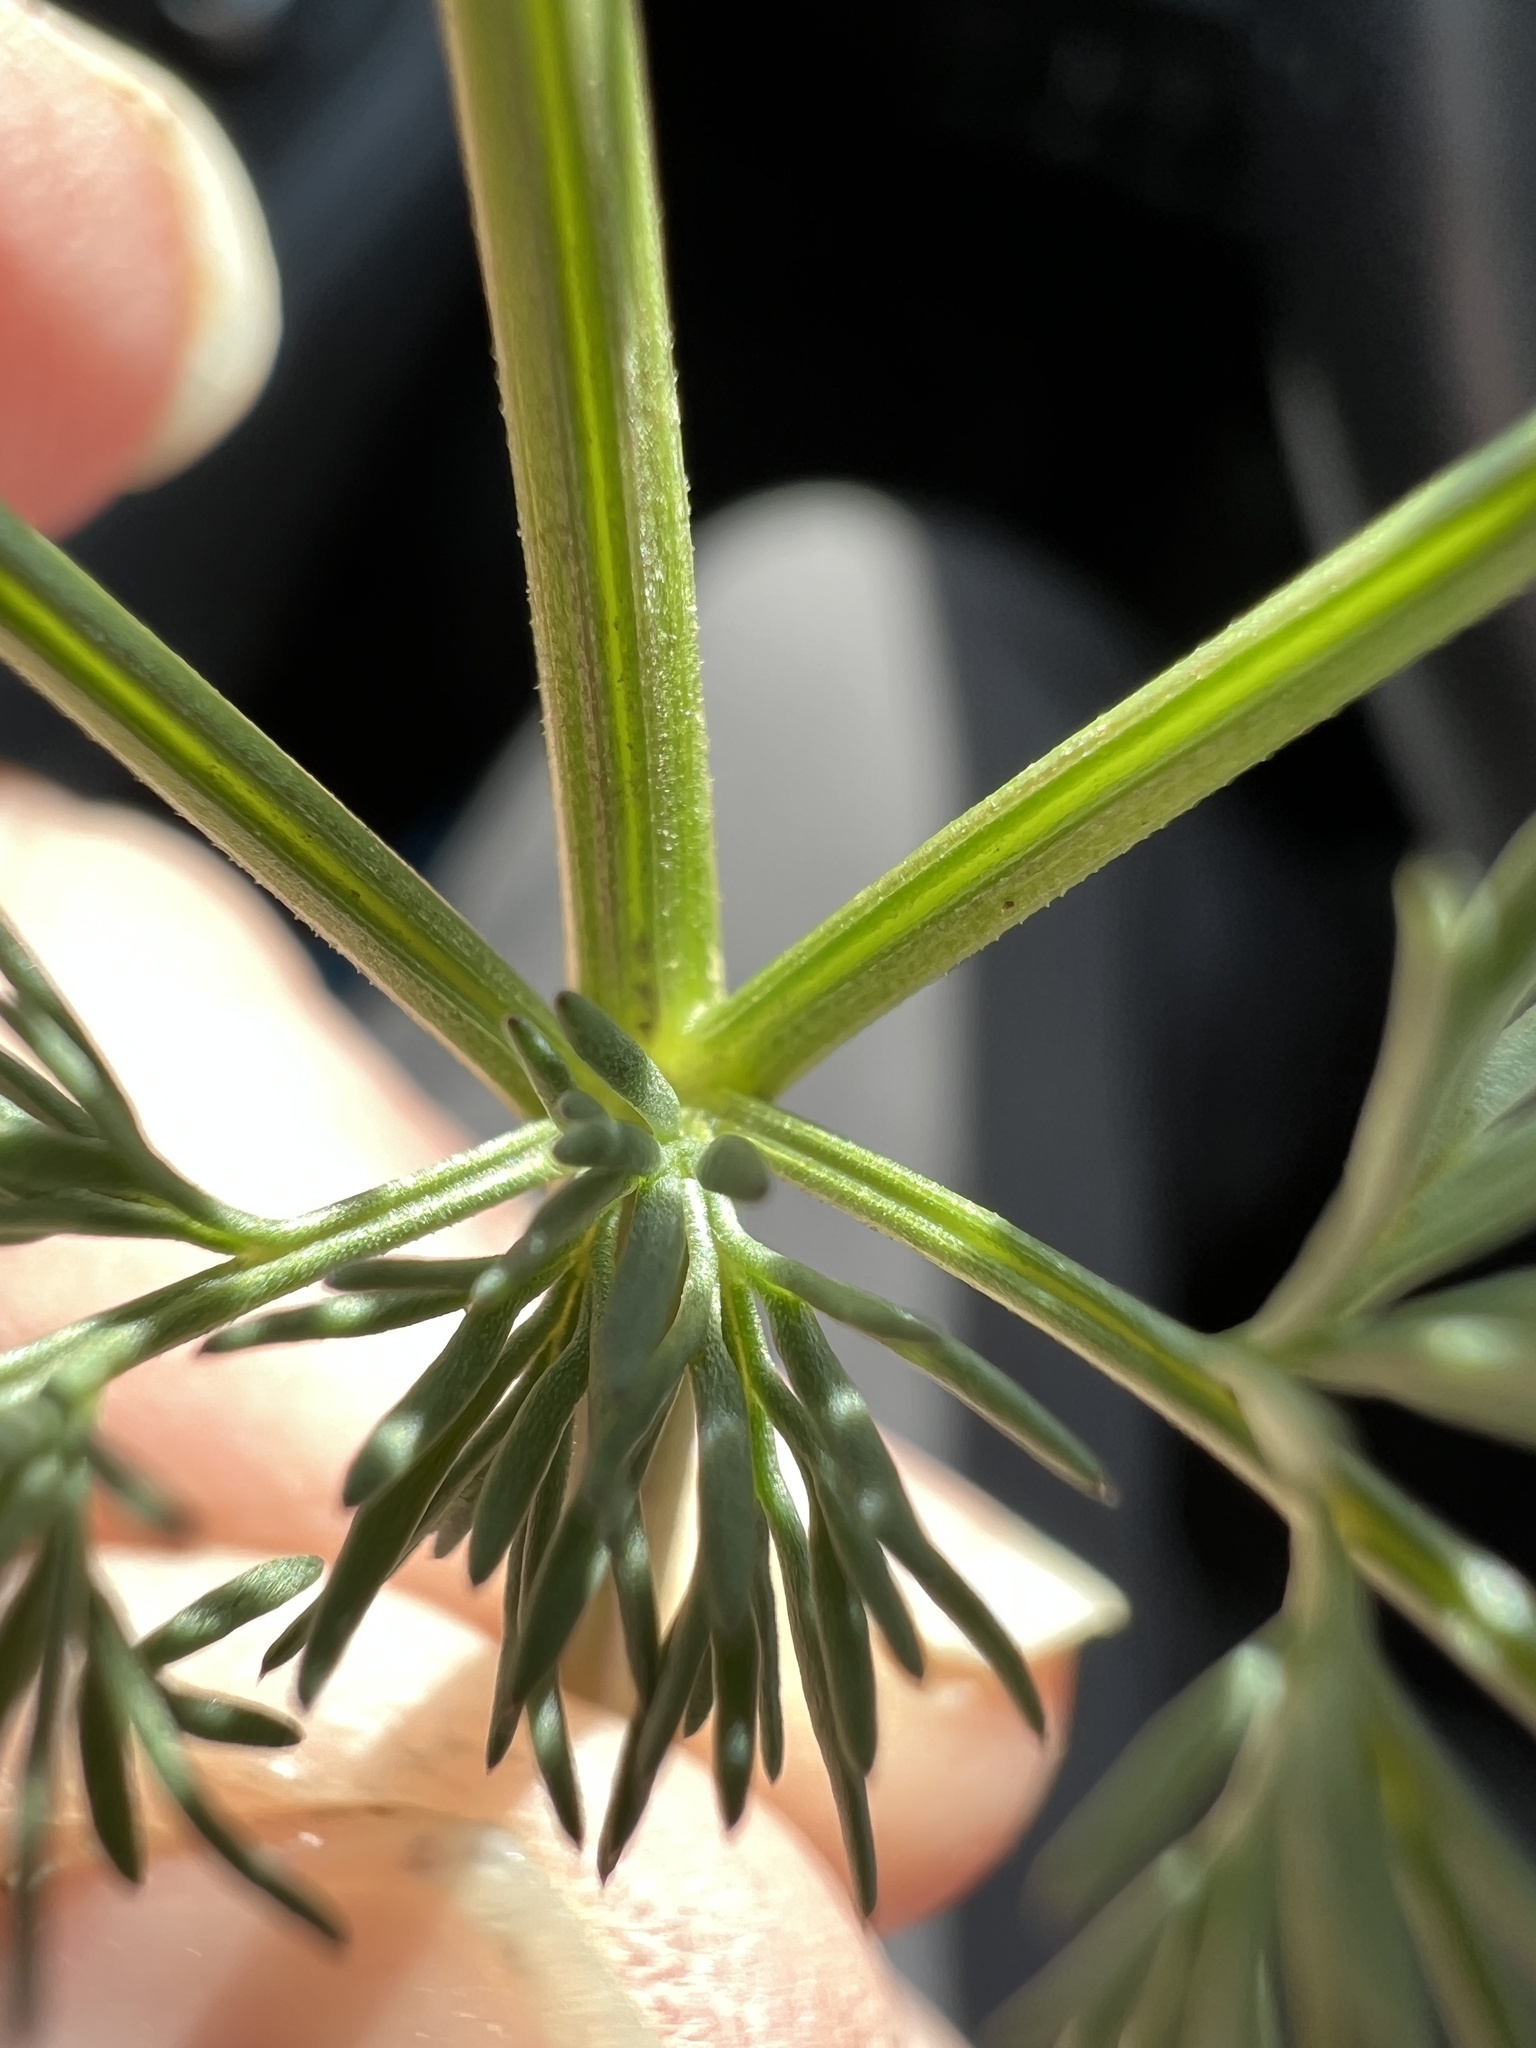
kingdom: Plantae
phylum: Tracheophyta
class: Magnoliopsida
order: Apiales
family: Apiaceae
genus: Lomatium
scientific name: Lomatium quintuplex
